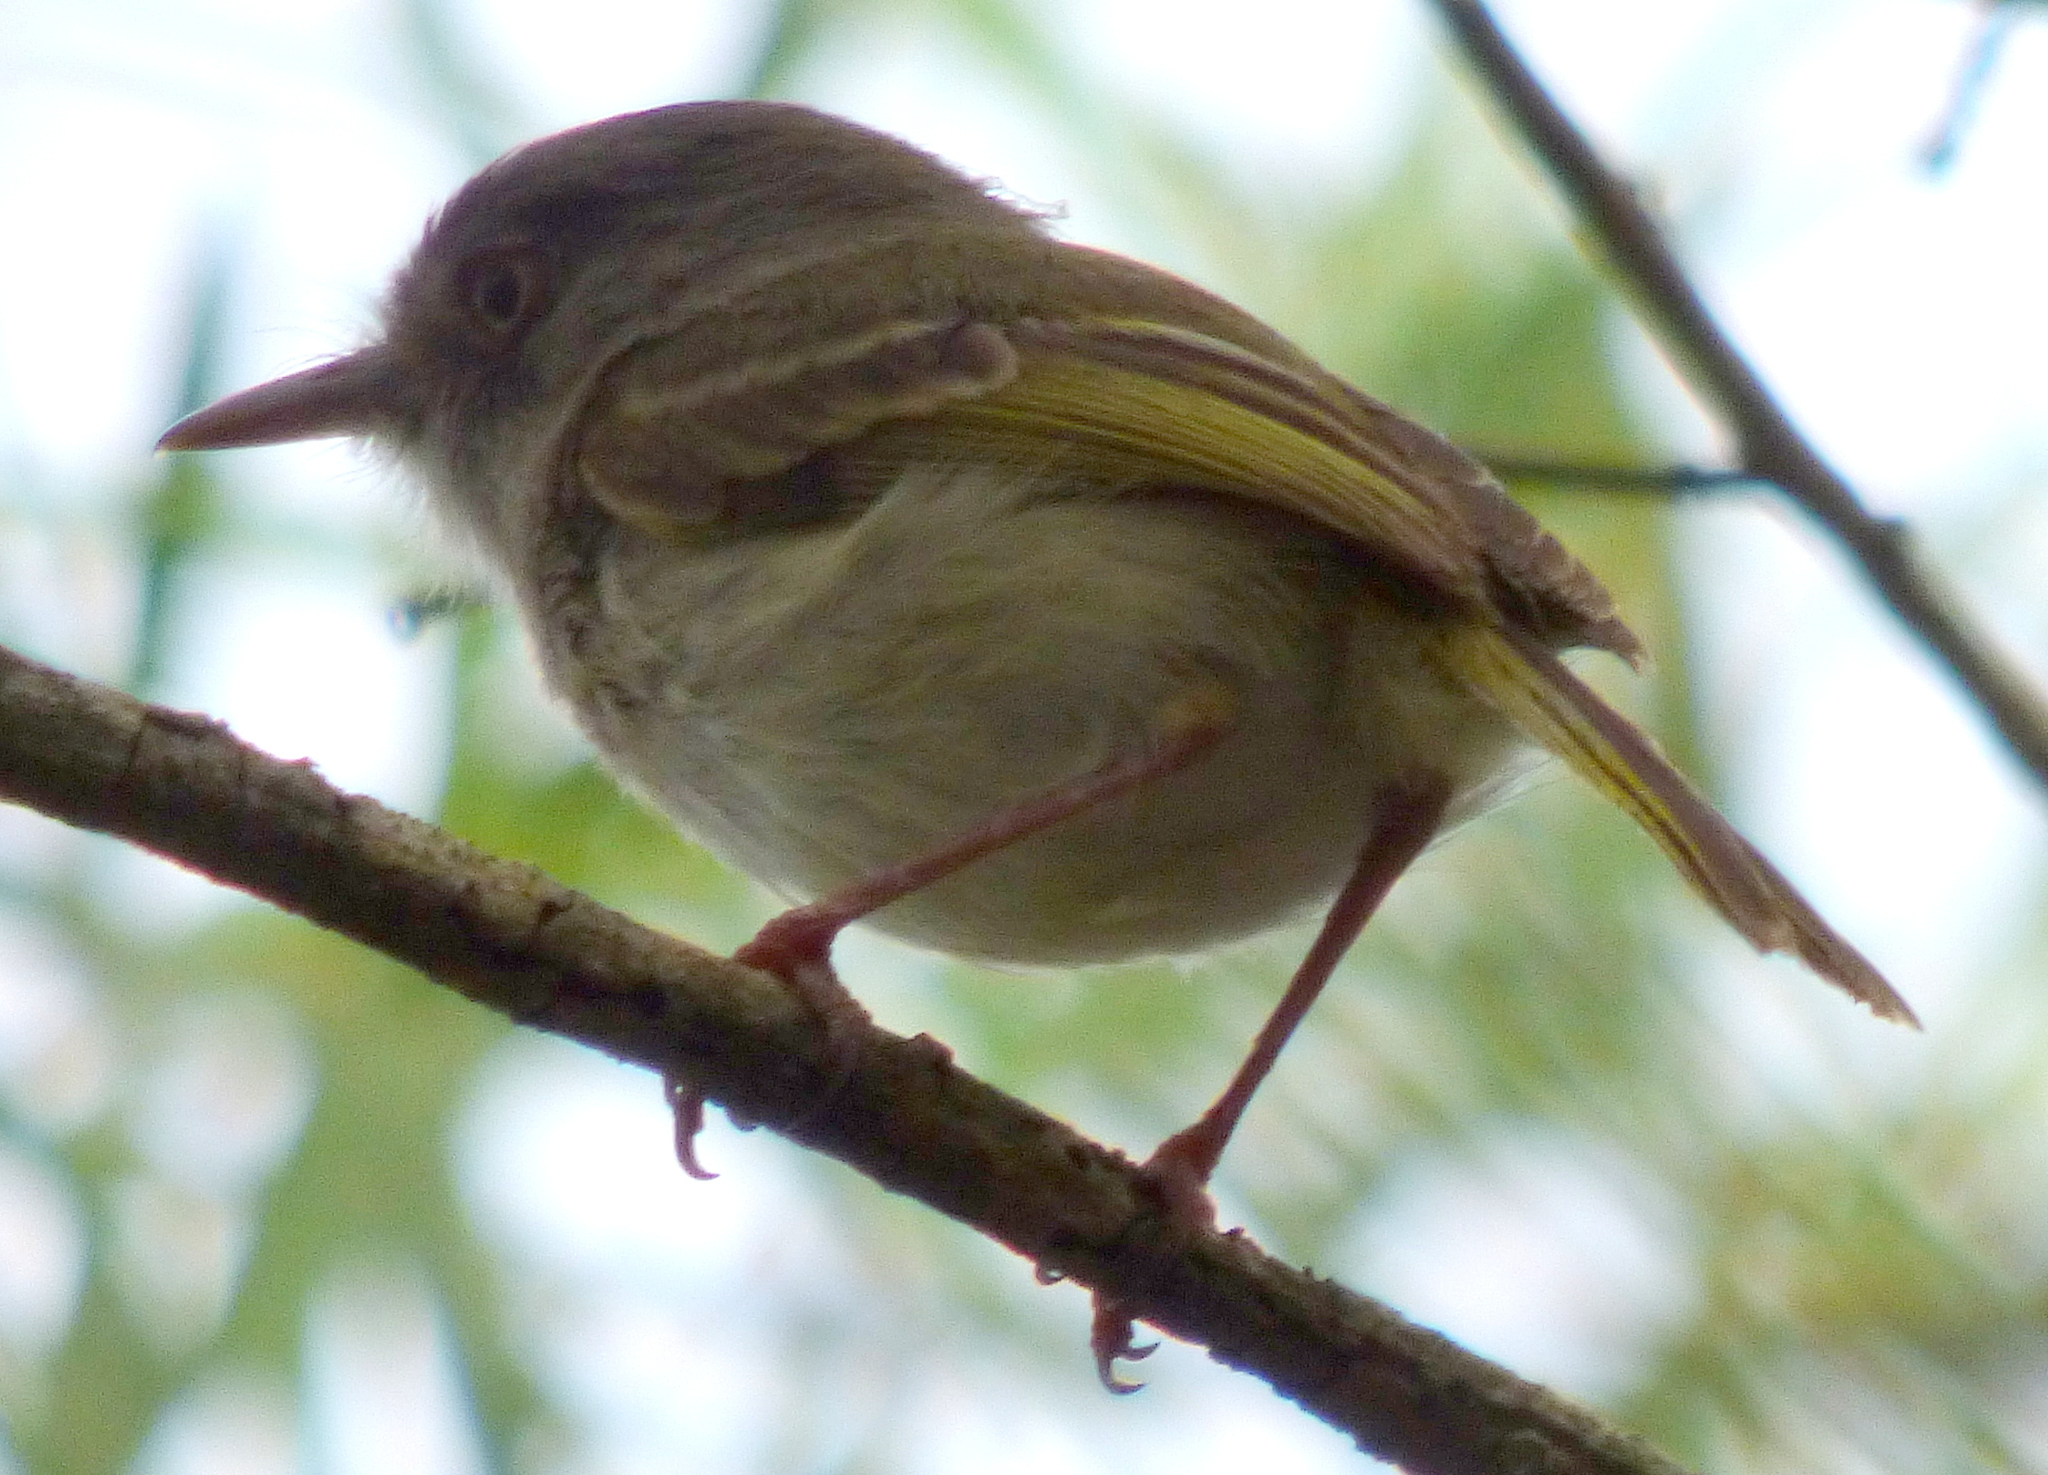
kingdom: Animalia
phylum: Chordata
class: Aves
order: Passeriformes
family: Tyrannidae
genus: Hemitriccus
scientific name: Hemitriccus margaritaceiventer
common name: Pearly-vented tody-tyrant
